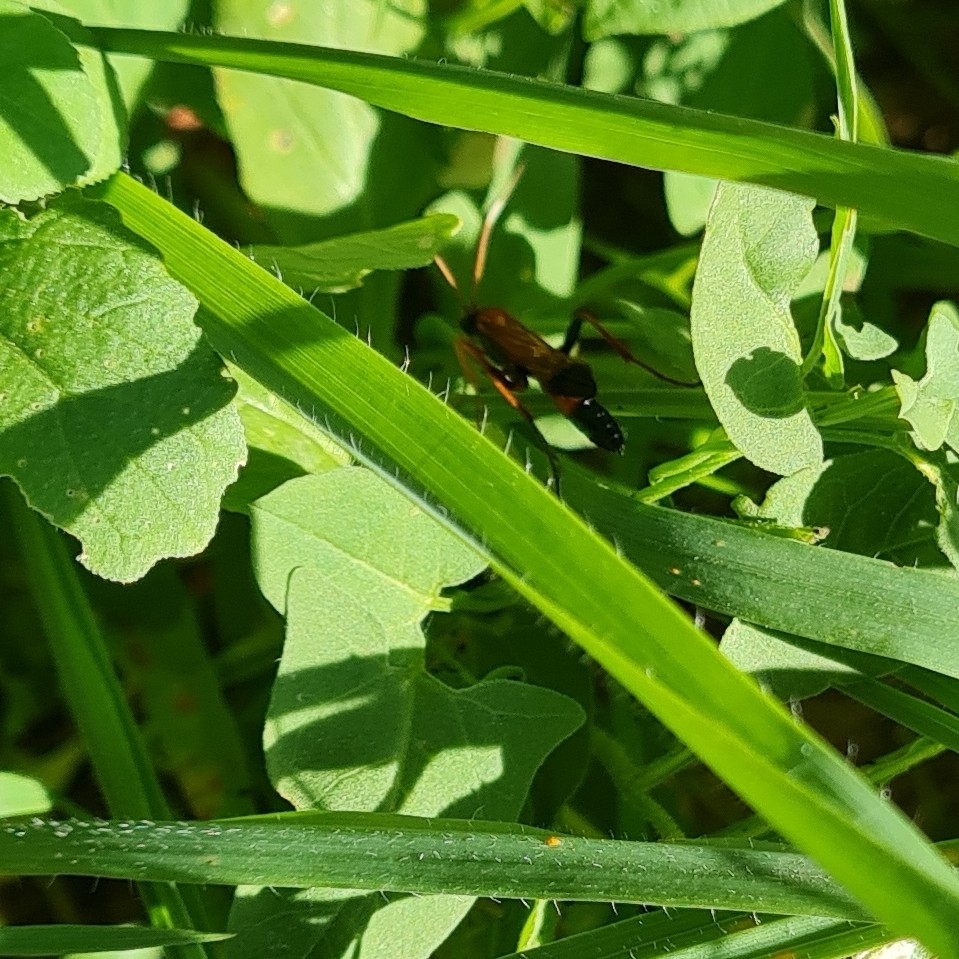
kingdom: Animalia
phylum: Arthropoda
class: Insecta
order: Hymenoptera
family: Ichneumonidae
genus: Ctenochares
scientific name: Ctenochares bicolorus
